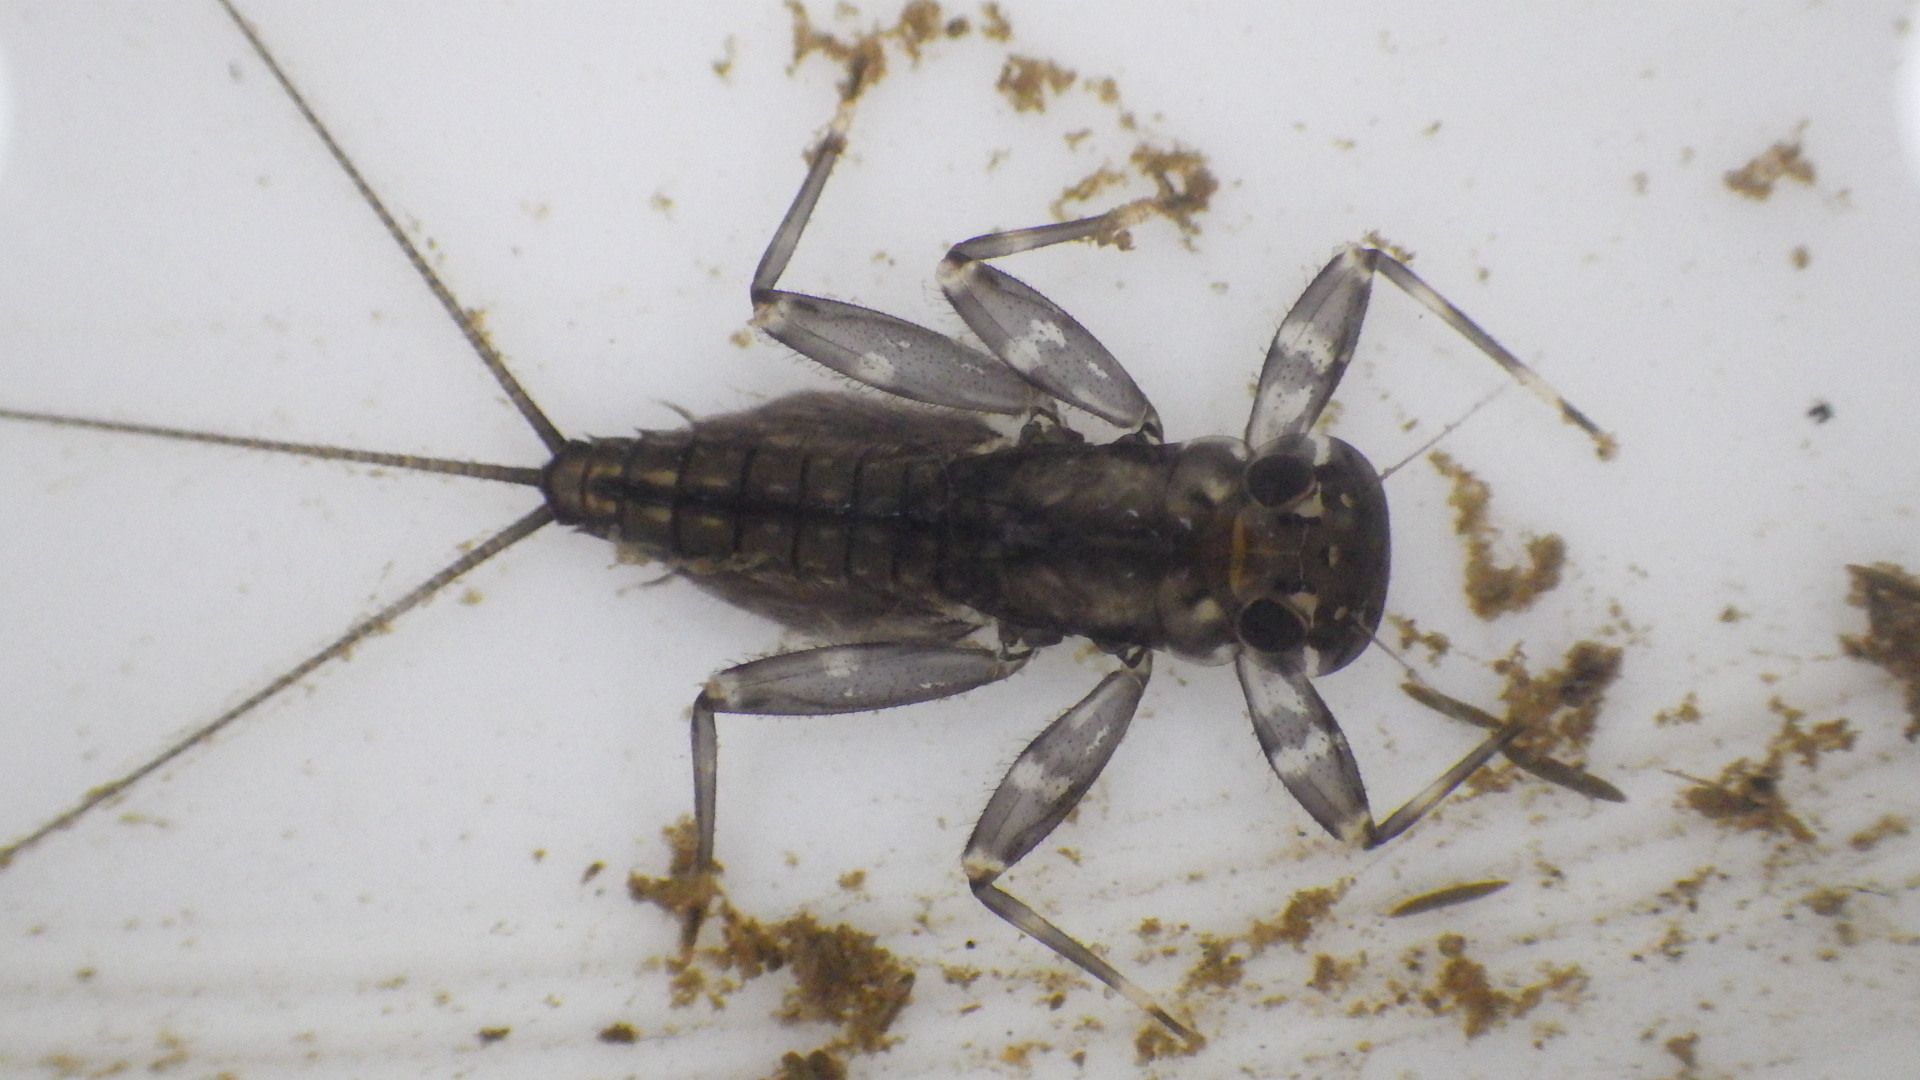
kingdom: Animalia
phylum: Arthropoda
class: Insecta
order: Ephemeroptera
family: Heptageniidae
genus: Stenacron
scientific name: Stenacron interpunctatum
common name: Orange cahill
